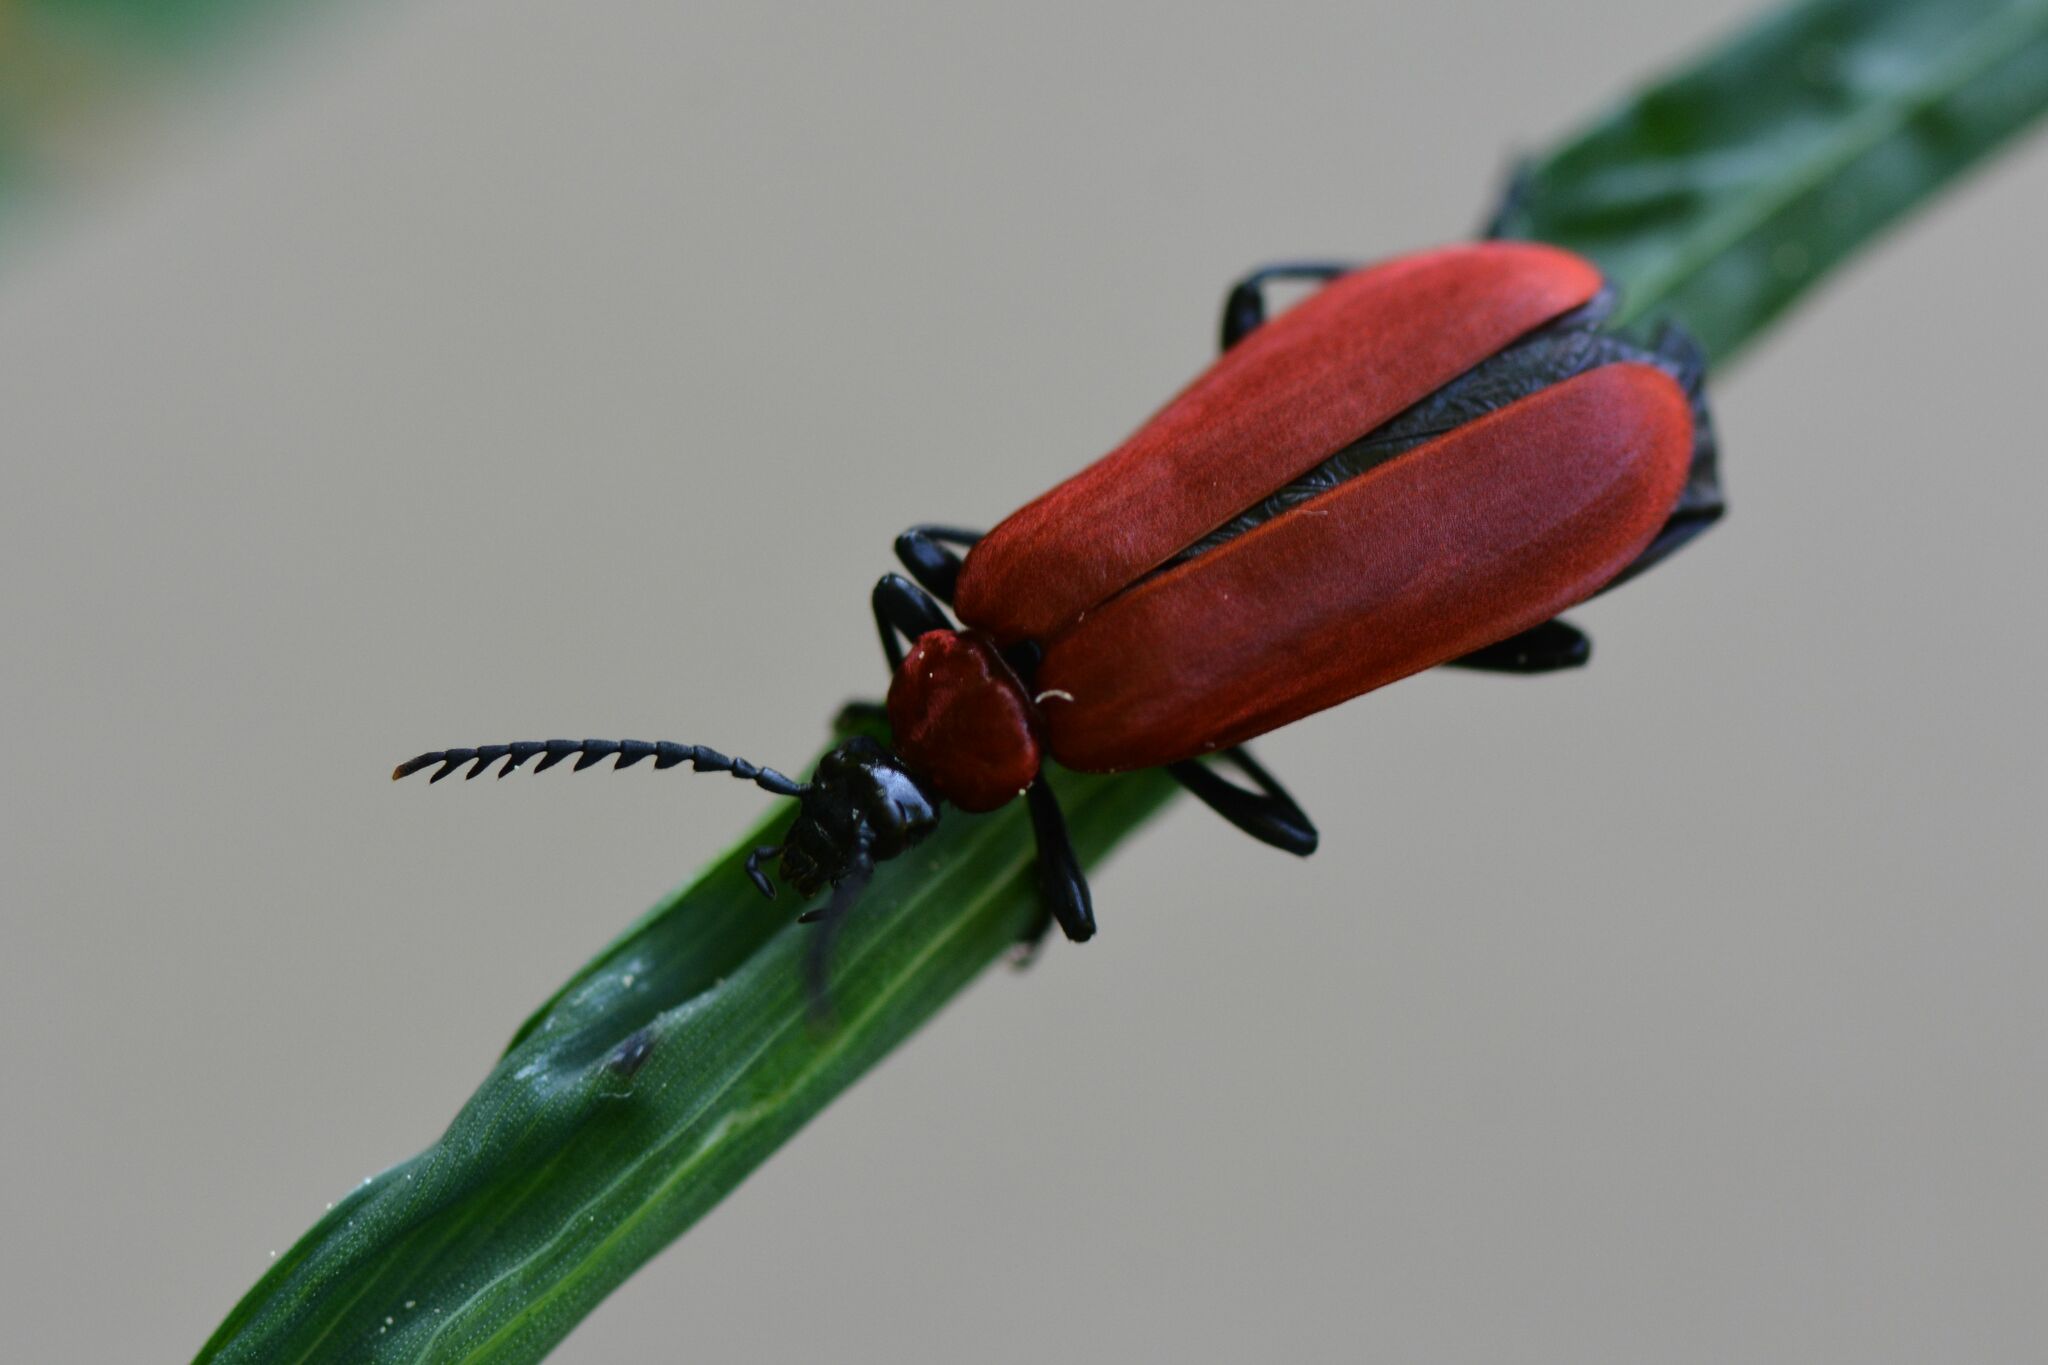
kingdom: Animalia
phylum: Arthropoda
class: Insecta
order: Coleoptera
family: Pyrochroidae
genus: Pyrochroa
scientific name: Pyrochroa coccinea
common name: Black-headed cardinal beetle
